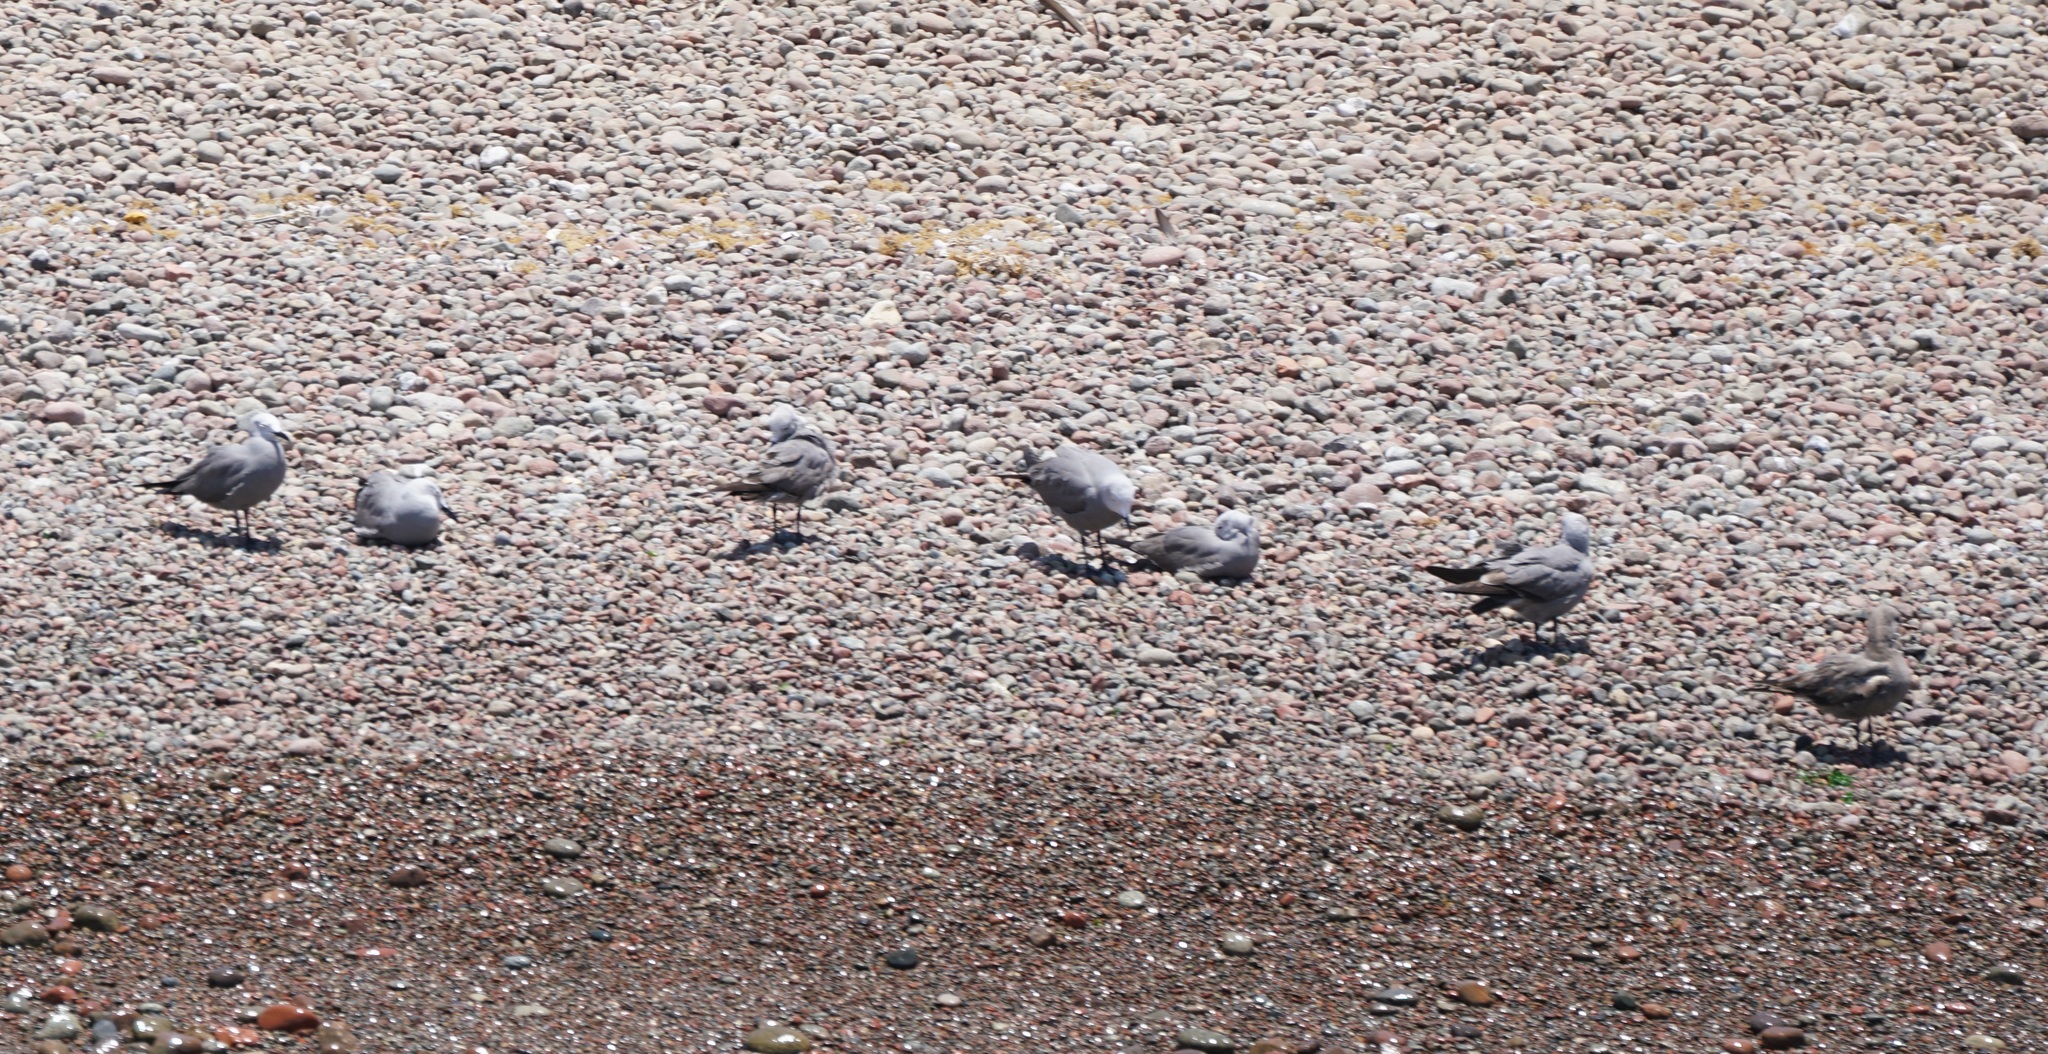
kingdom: Animalia
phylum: Chordata
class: Aves
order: Charadriiformes
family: Laridae
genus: Leucophaeus
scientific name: Leucophaeus modestus
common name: Gray gull
